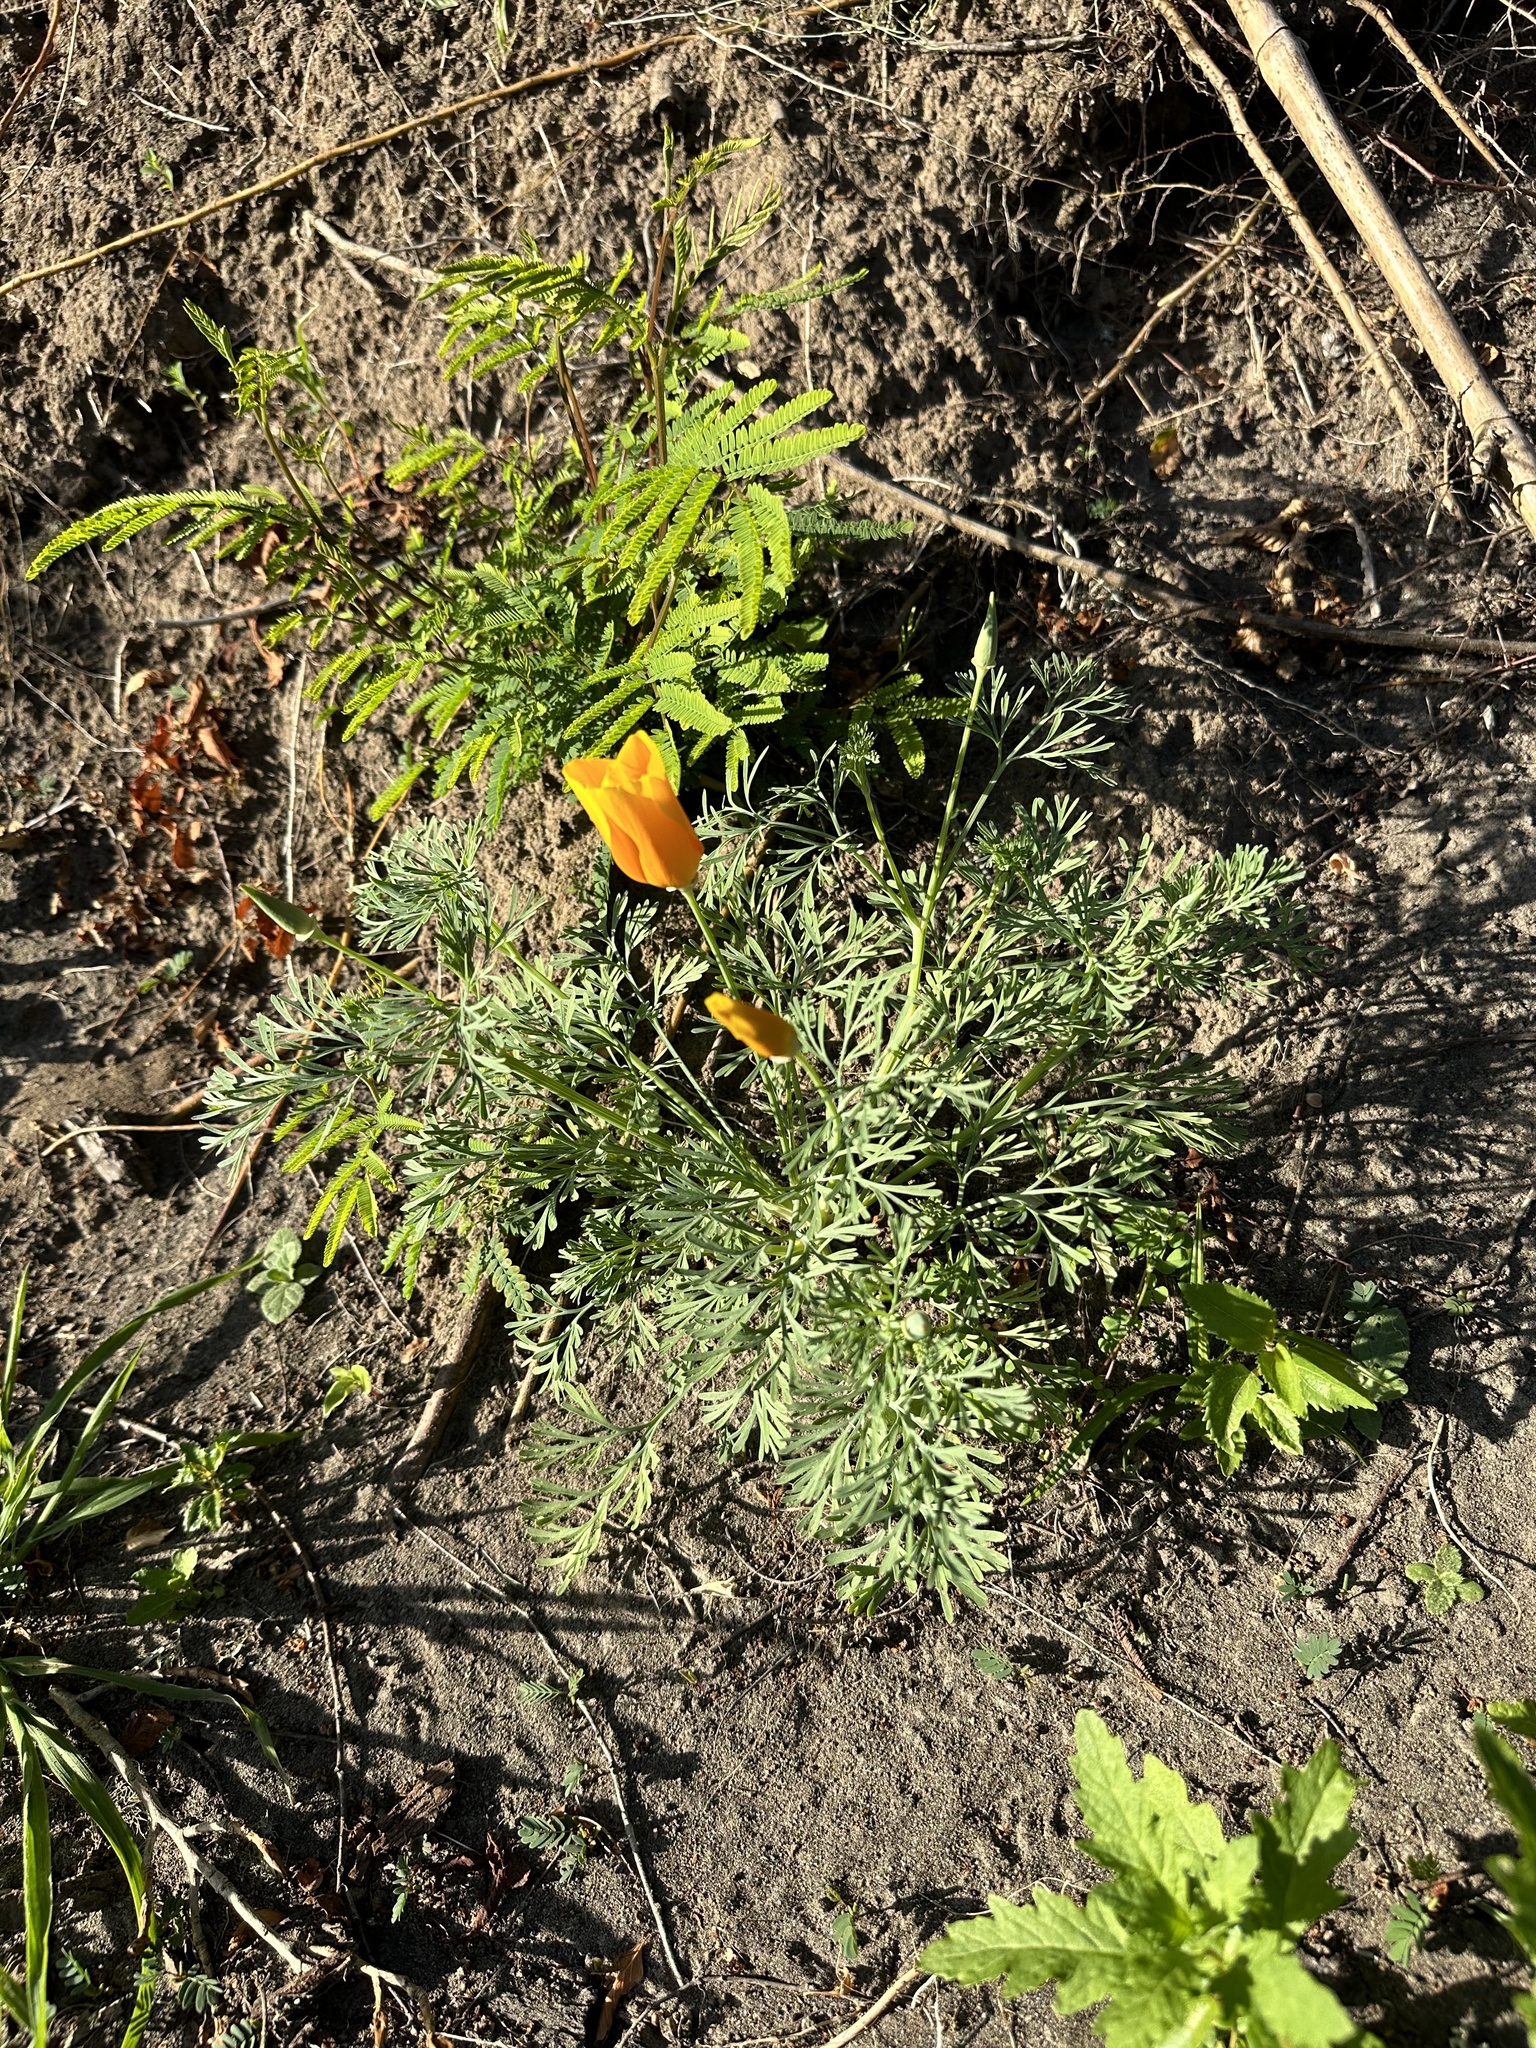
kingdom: Plantae
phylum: Tracheophyta
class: Magnoliopsida
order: Ranunculales
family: Papaveraceae
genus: Eschscholzia
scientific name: Eschscholzia californica
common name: California poppy
